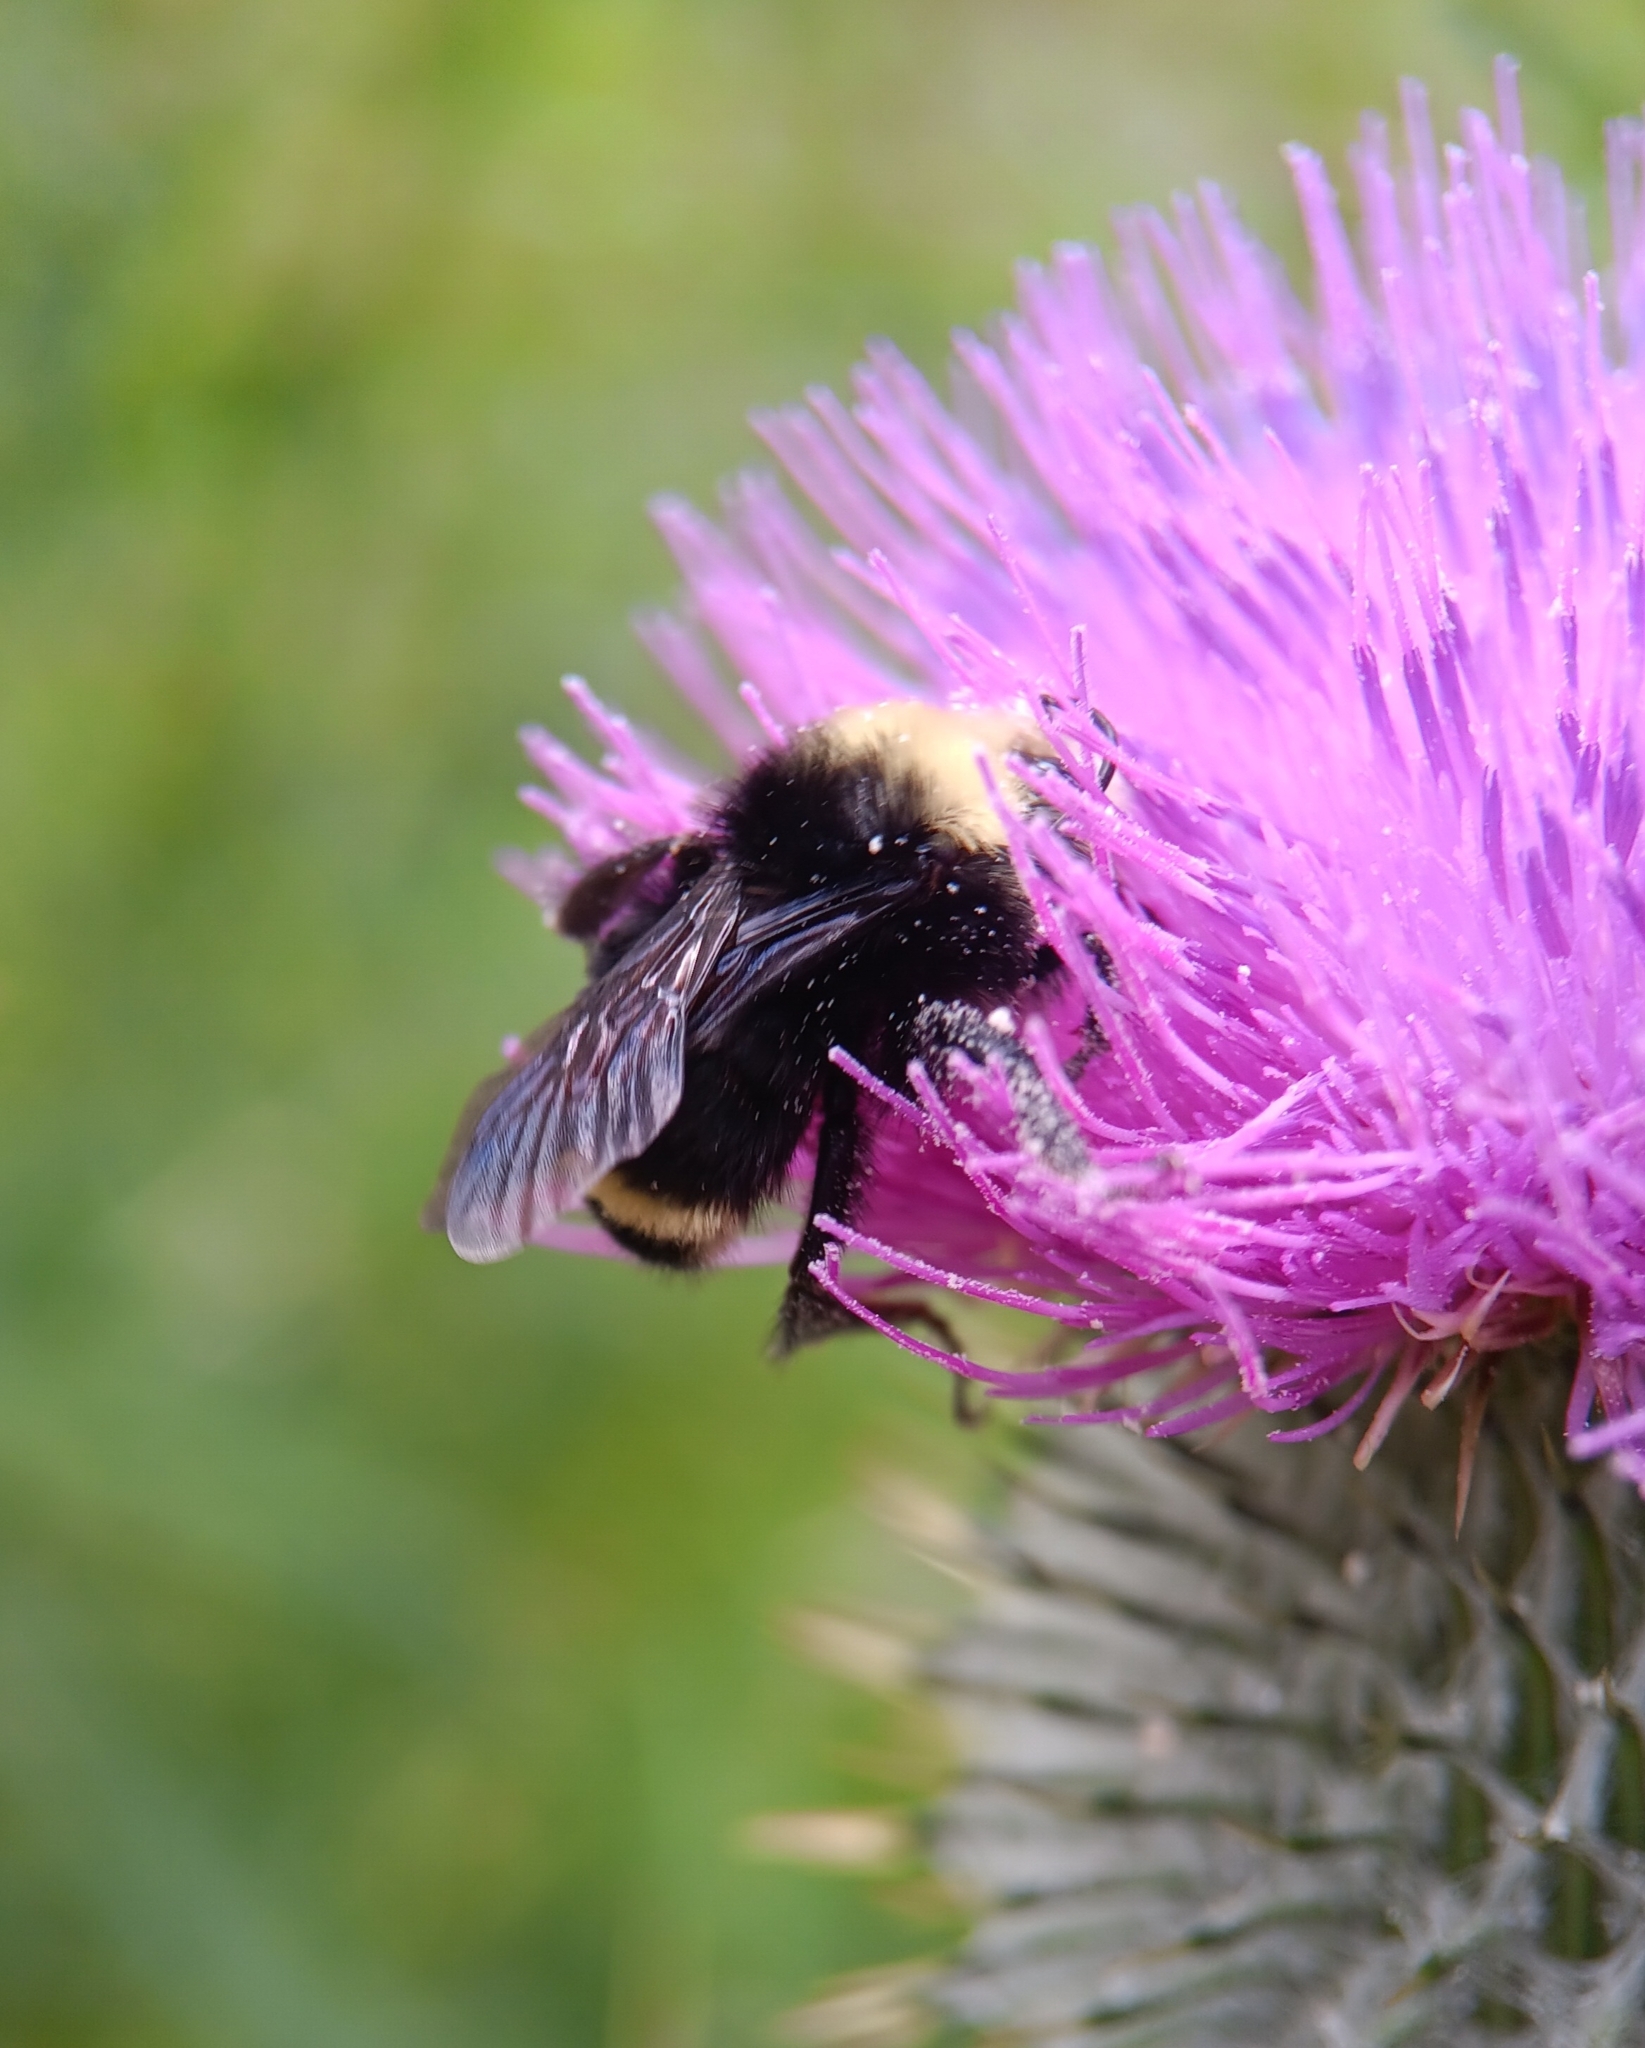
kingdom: Animalia
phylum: Arthropoda
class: Insecta
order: Hymenoptera
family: Apidae
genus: Bombus
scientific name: Bombus vosnesenskii
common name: Vosnesensky bumble bee
